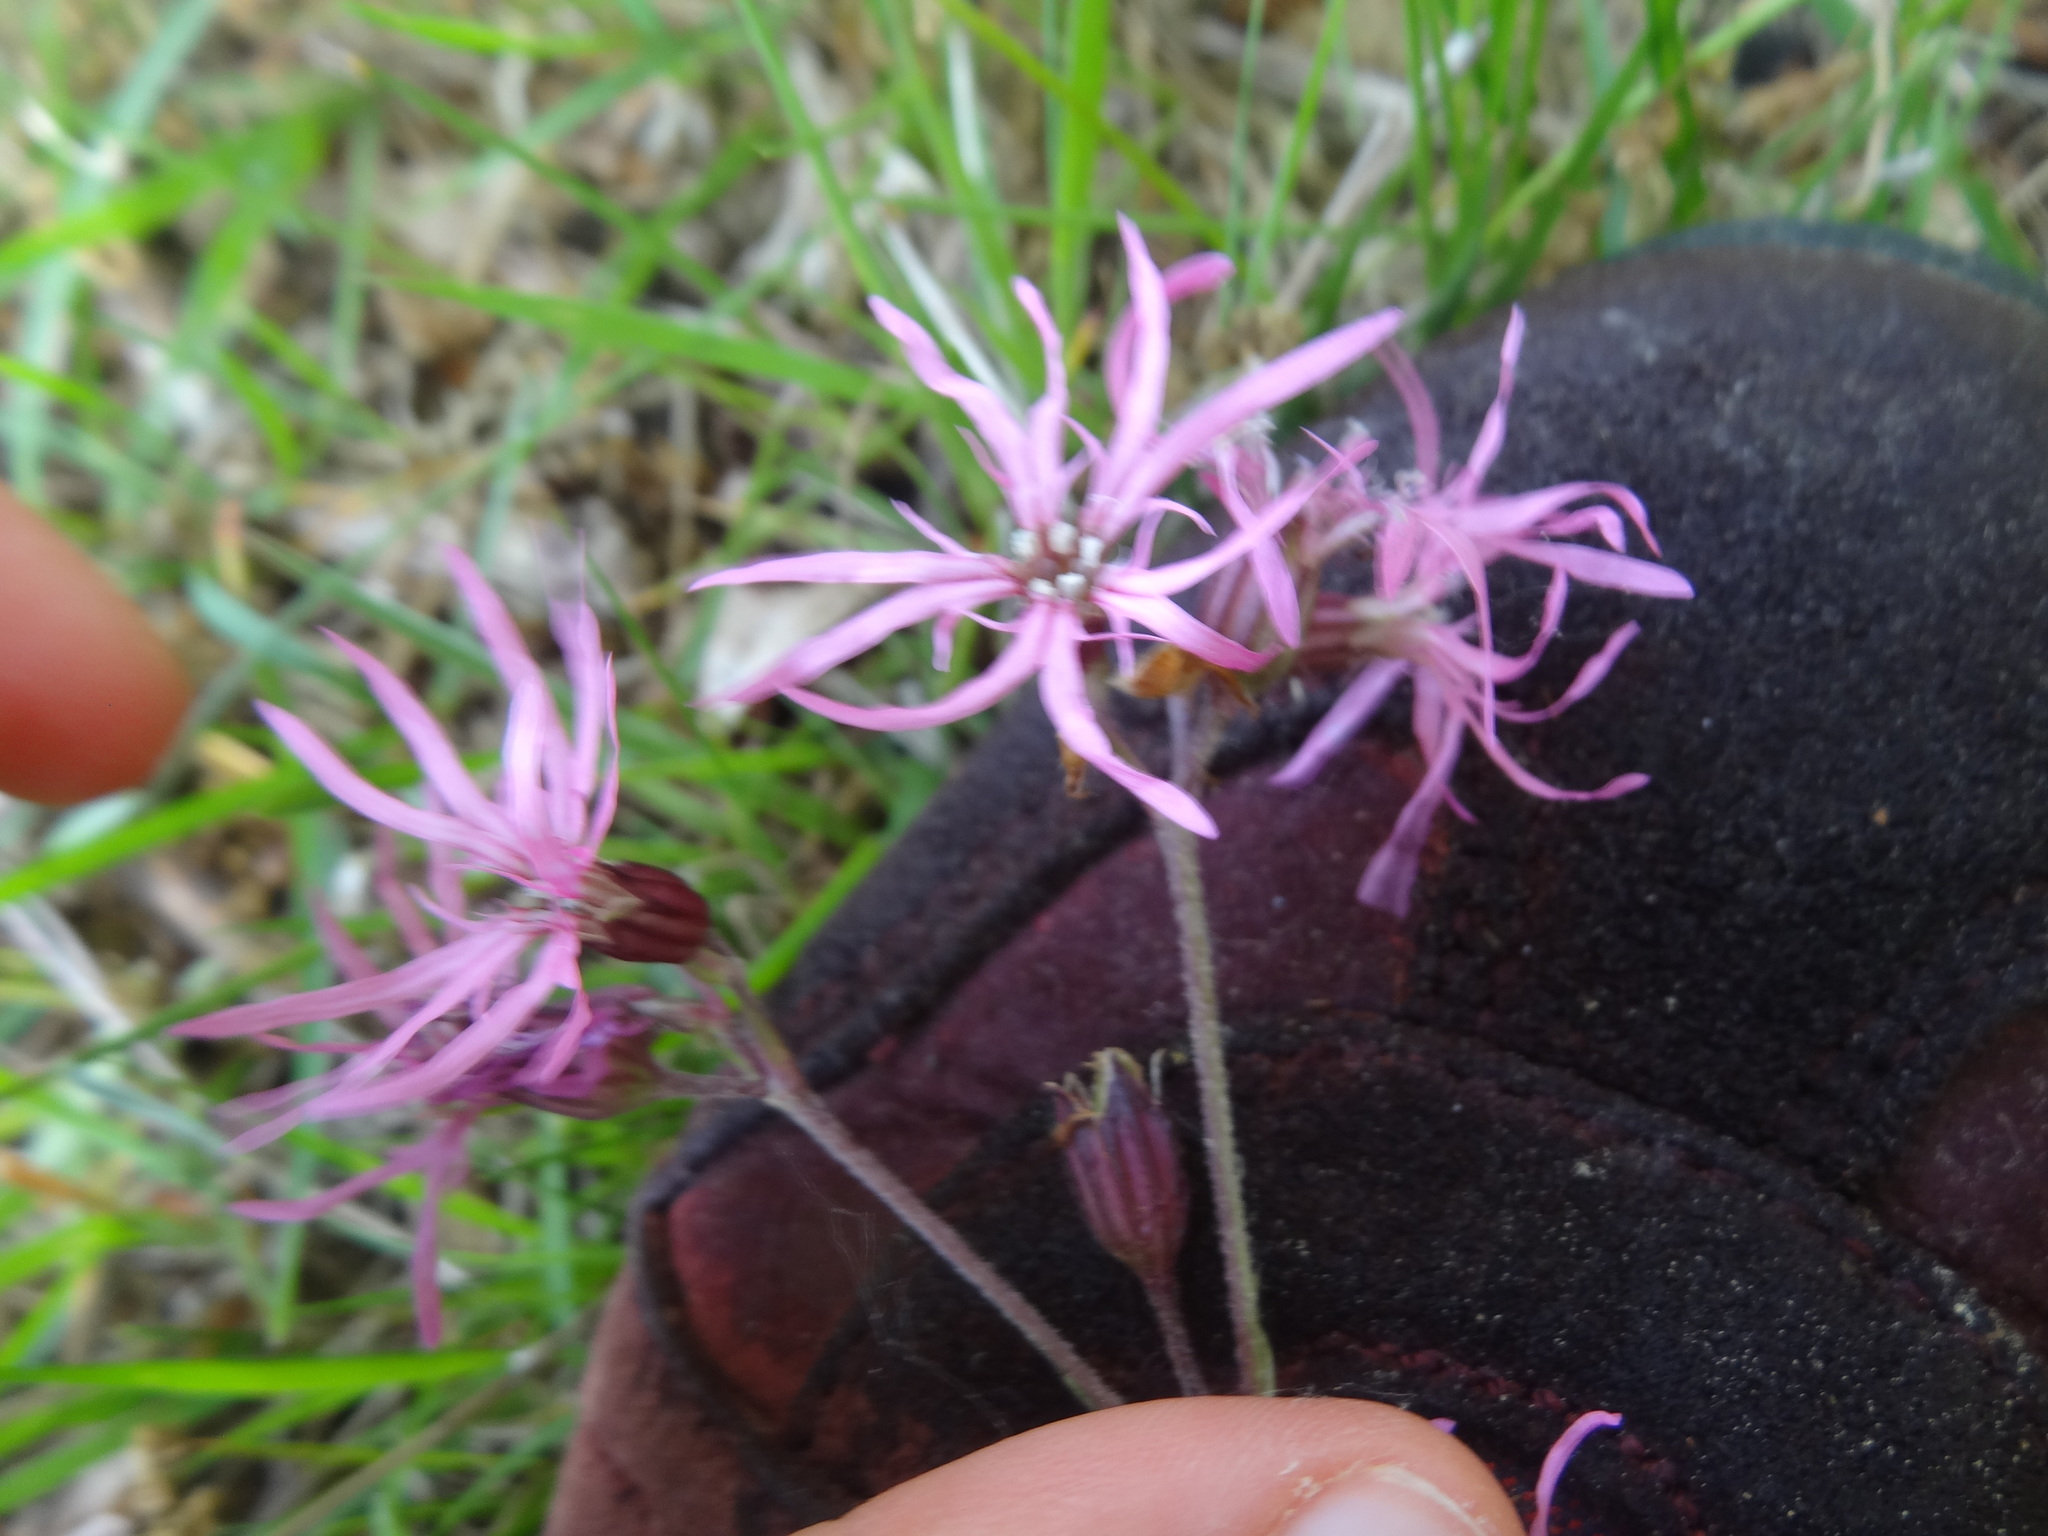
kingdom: Plantae
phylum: Tracheophyta
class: Magnoliopsida
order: Caryophyllales
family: Caryophyllaceae
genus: Silene
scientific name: Silene flos-cuculi
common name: Ragged-robin
